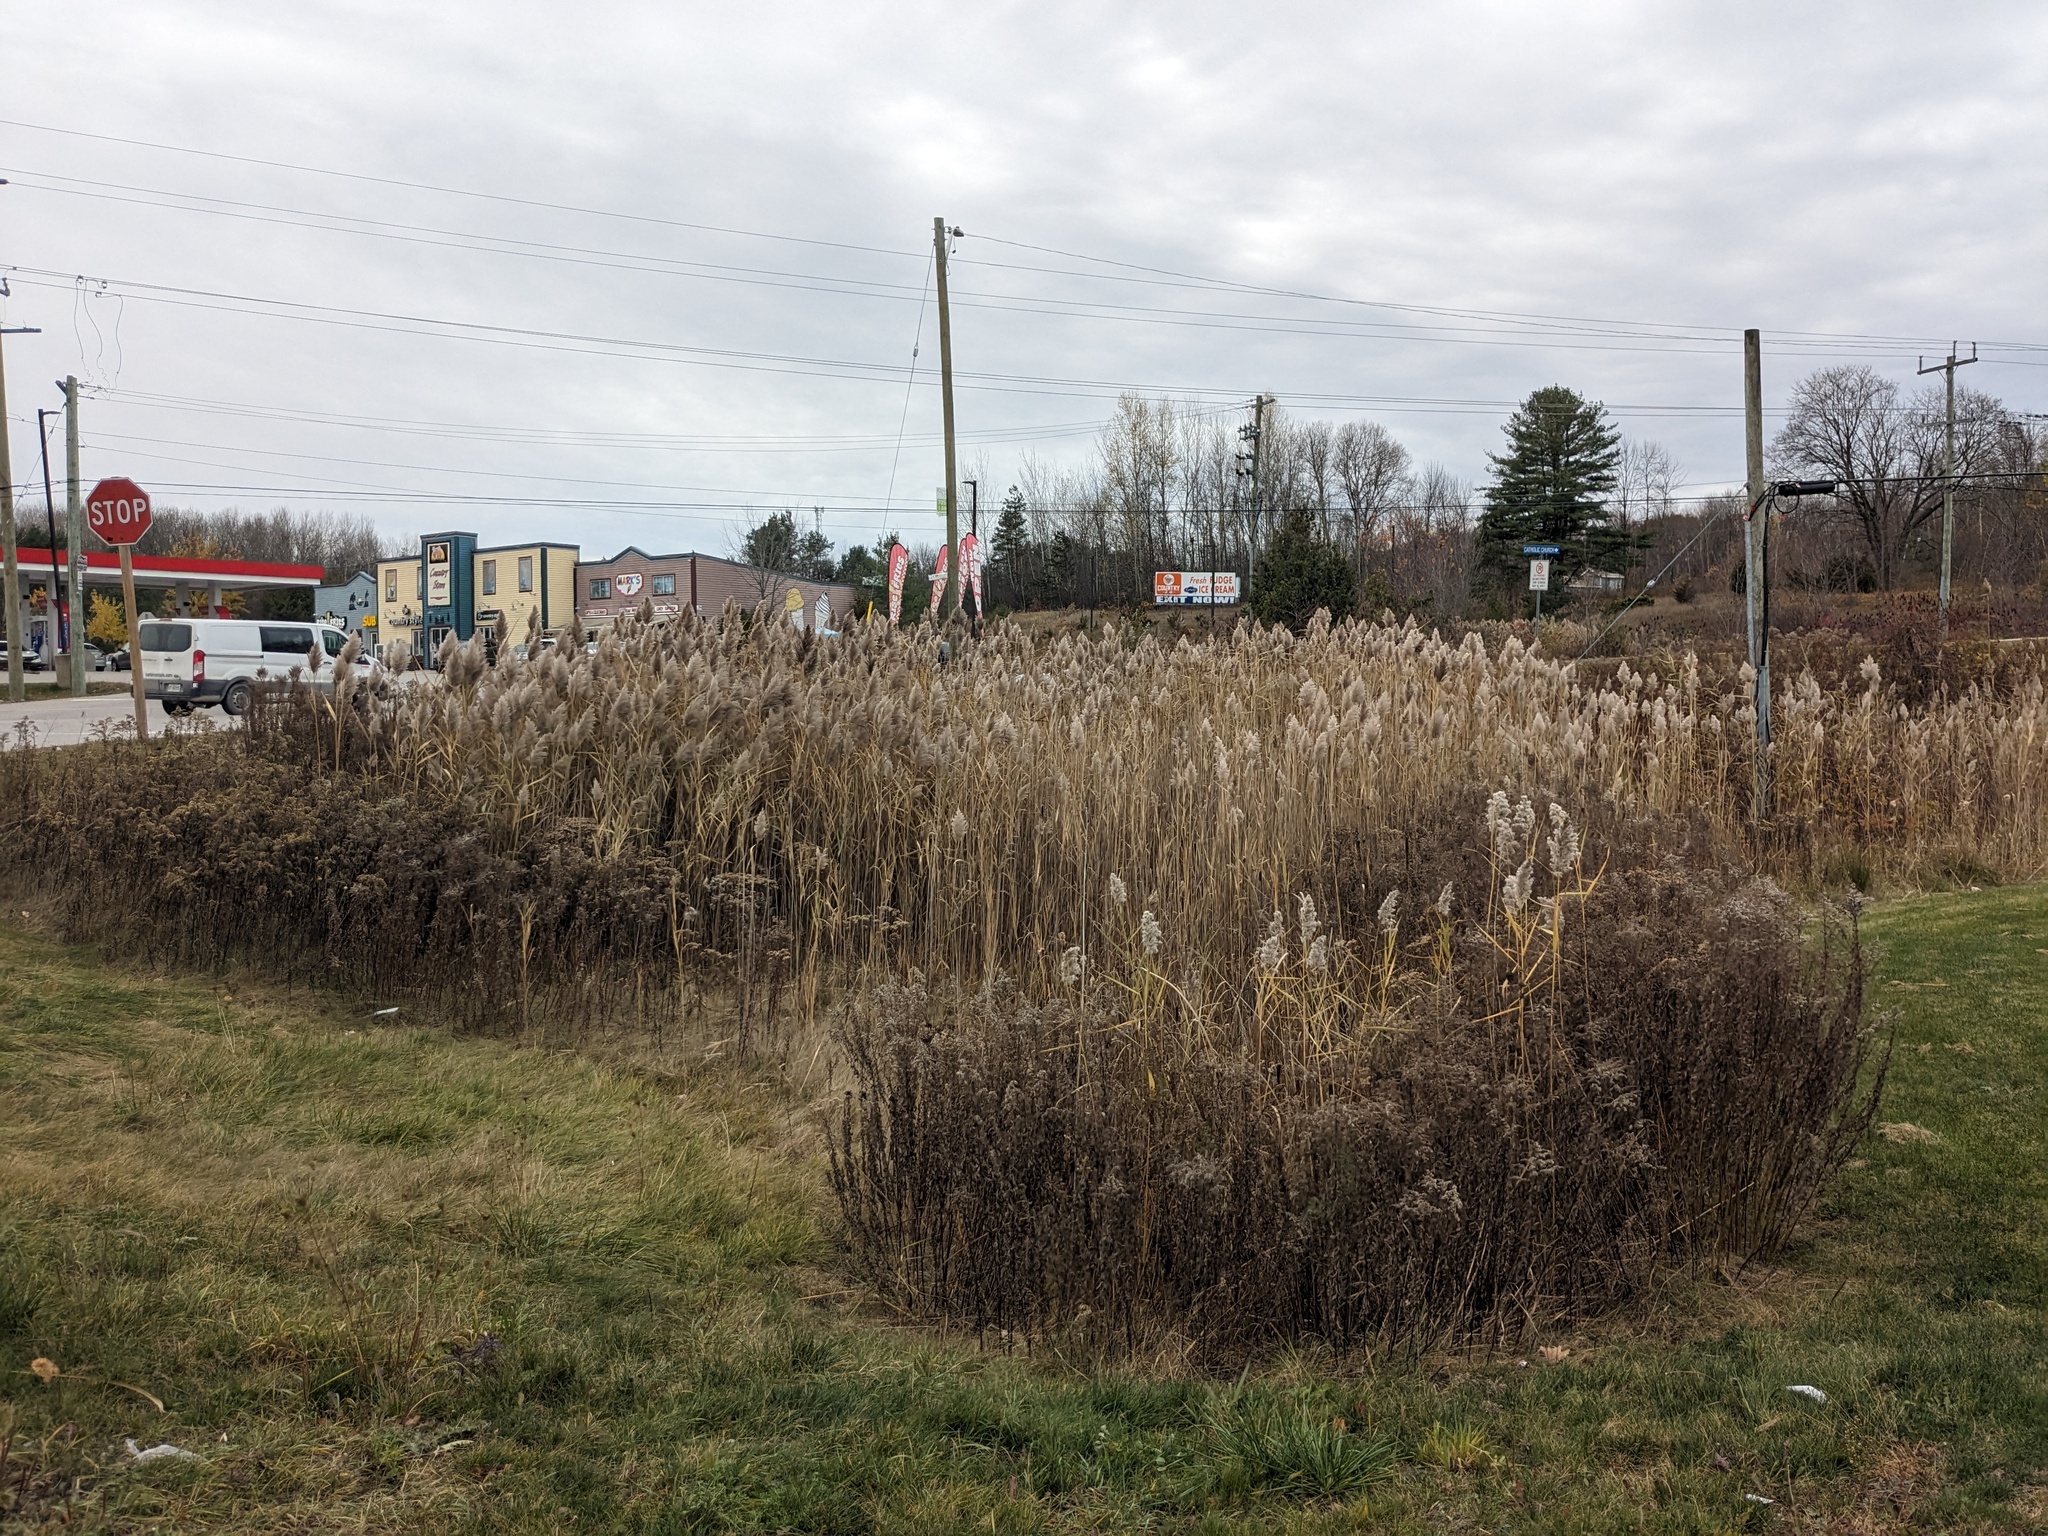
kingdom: Plantae
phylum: Tracheophyta
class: Liliopsida
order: Poales
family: Poaceae
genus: Phragmites
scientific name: Phragmites australis
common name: Common reed
